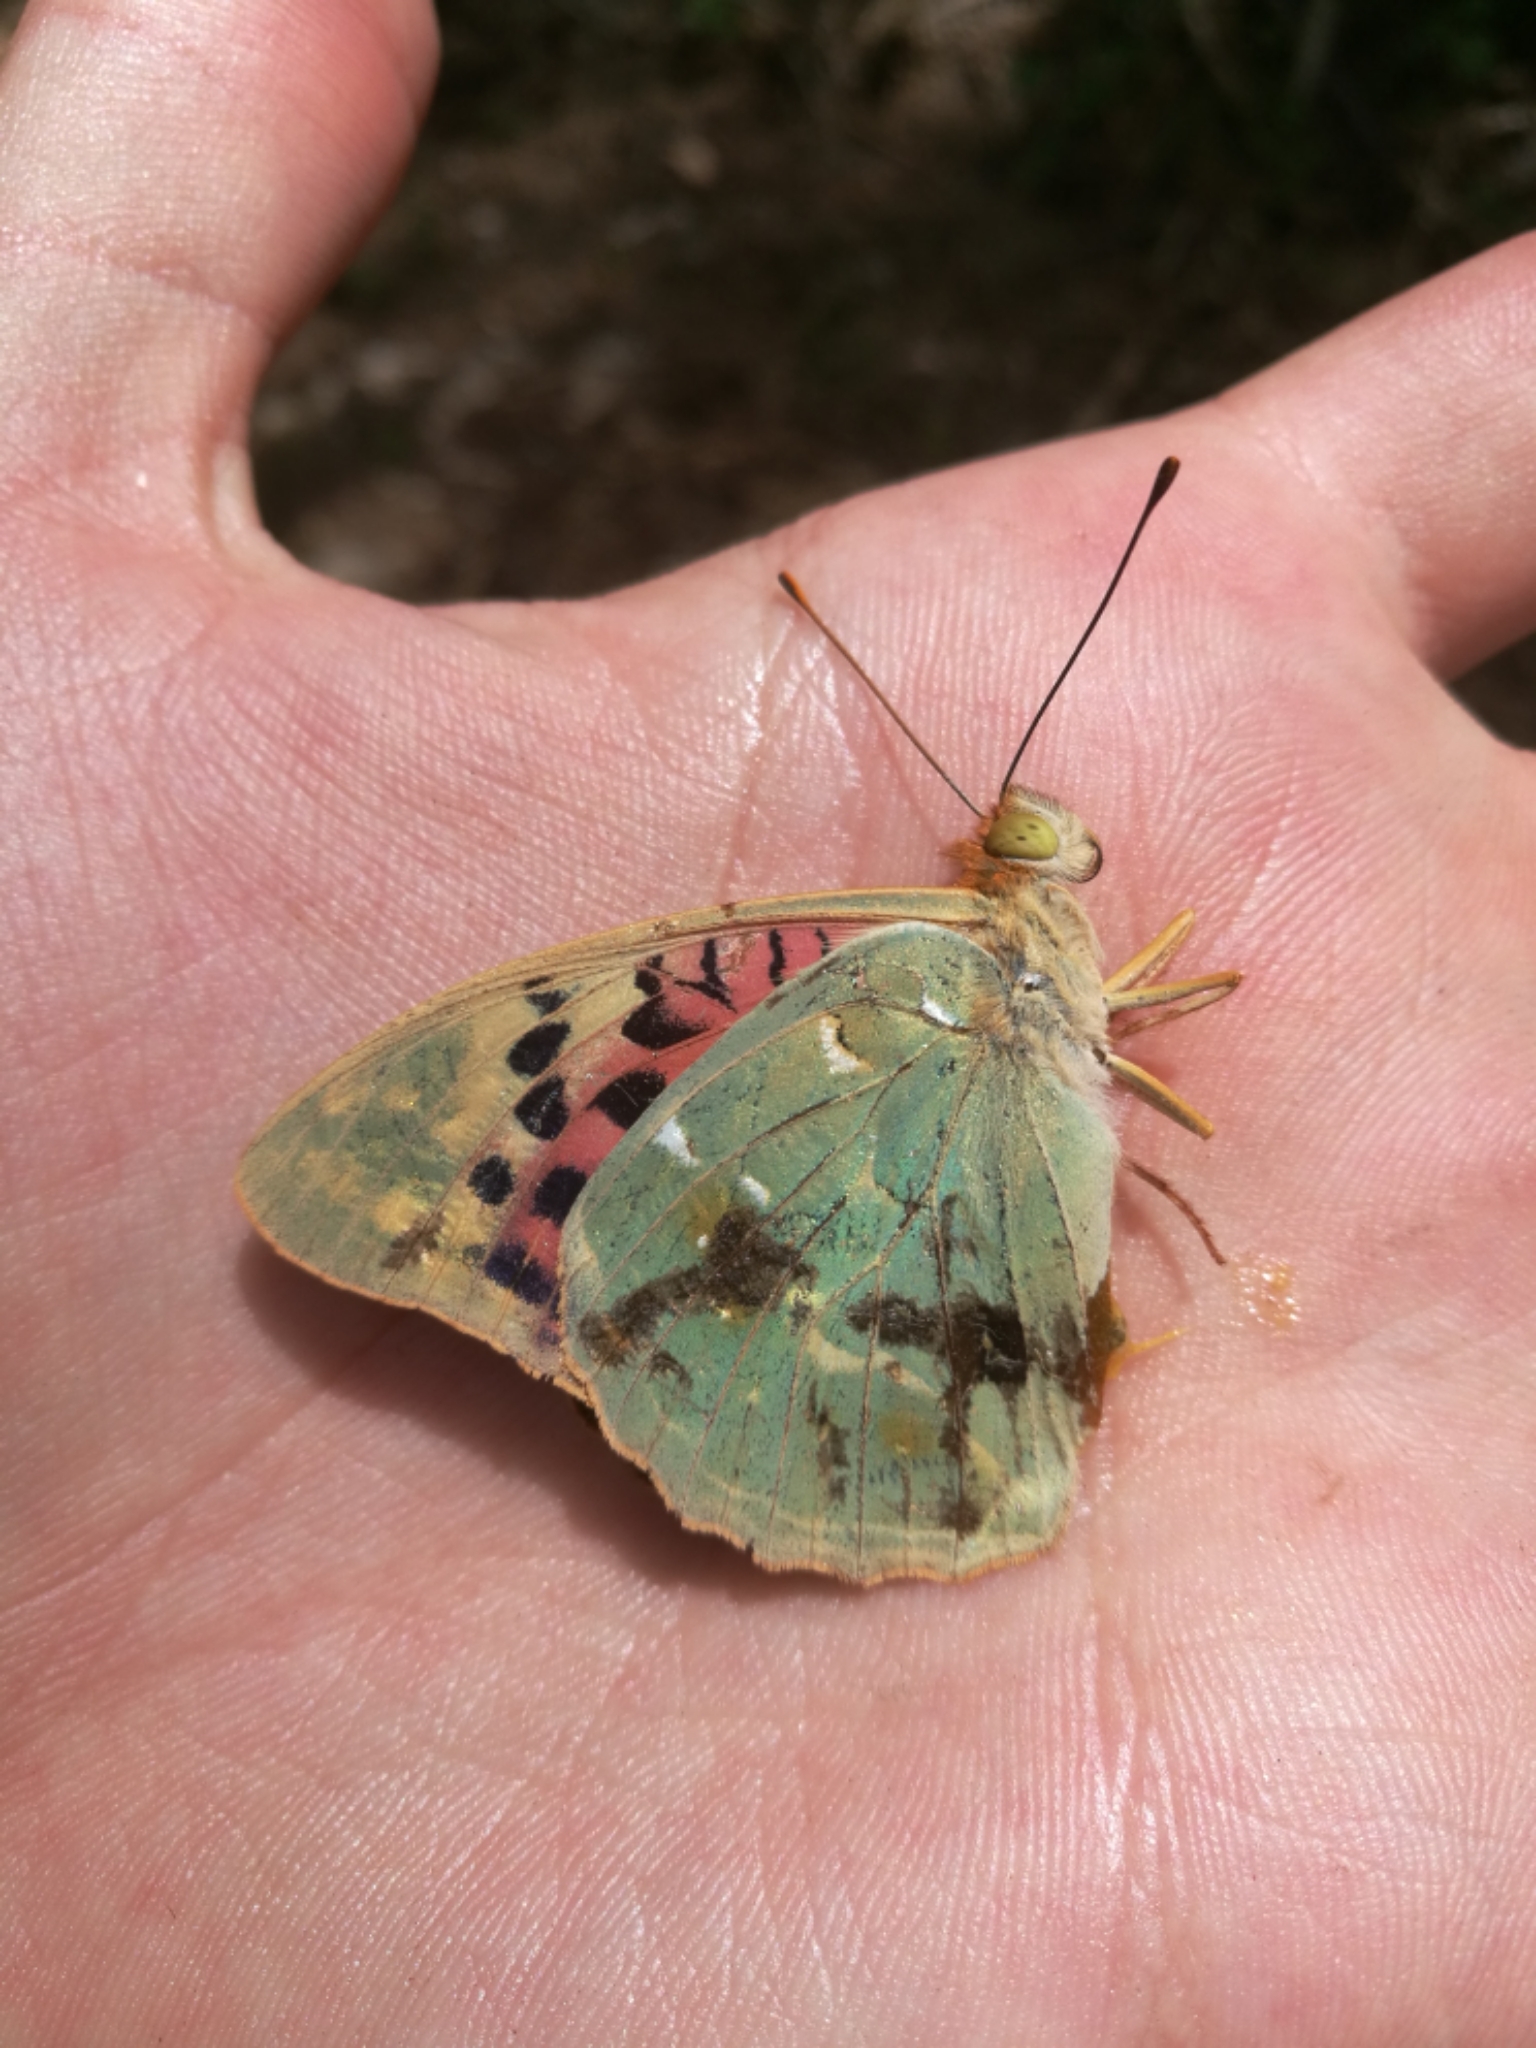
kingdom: Animalia
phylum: Arthropoda
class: Insecta
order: Lepidoptera
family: Nymphalidae
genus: Damora
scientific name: Damora pandora
